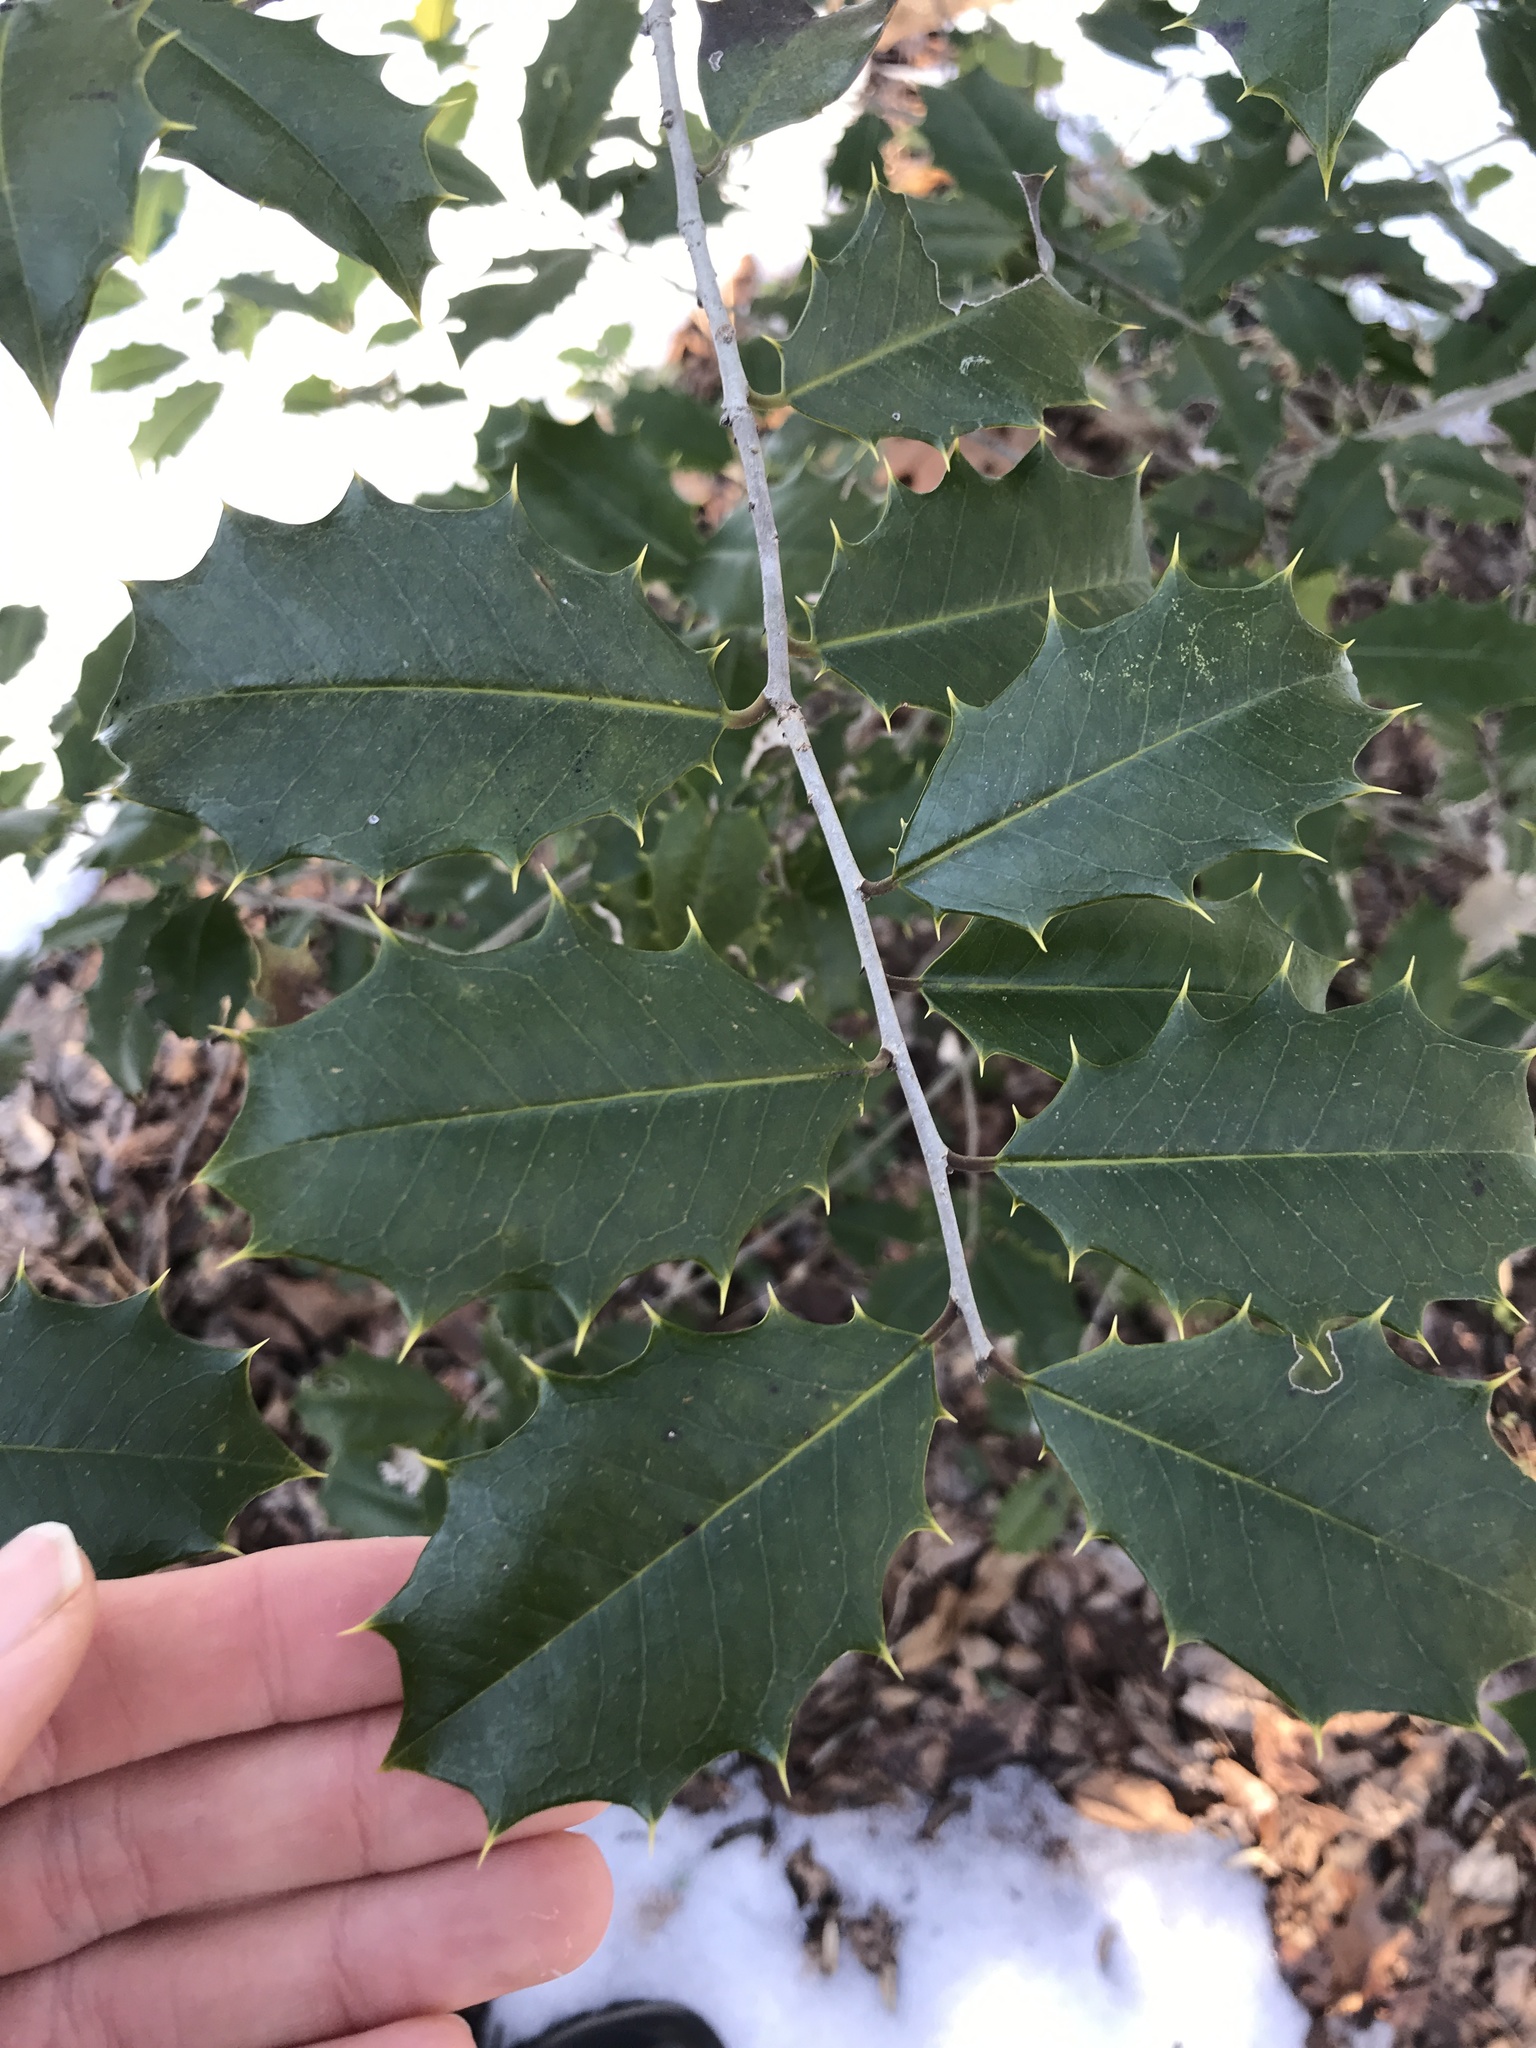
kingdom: Plantae
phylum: Tracheophyta
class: Magnoliopsida
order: Aquifoliales
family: Aquifoliaceae
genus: Ilex
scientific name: Ilex opaca
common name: American holly
